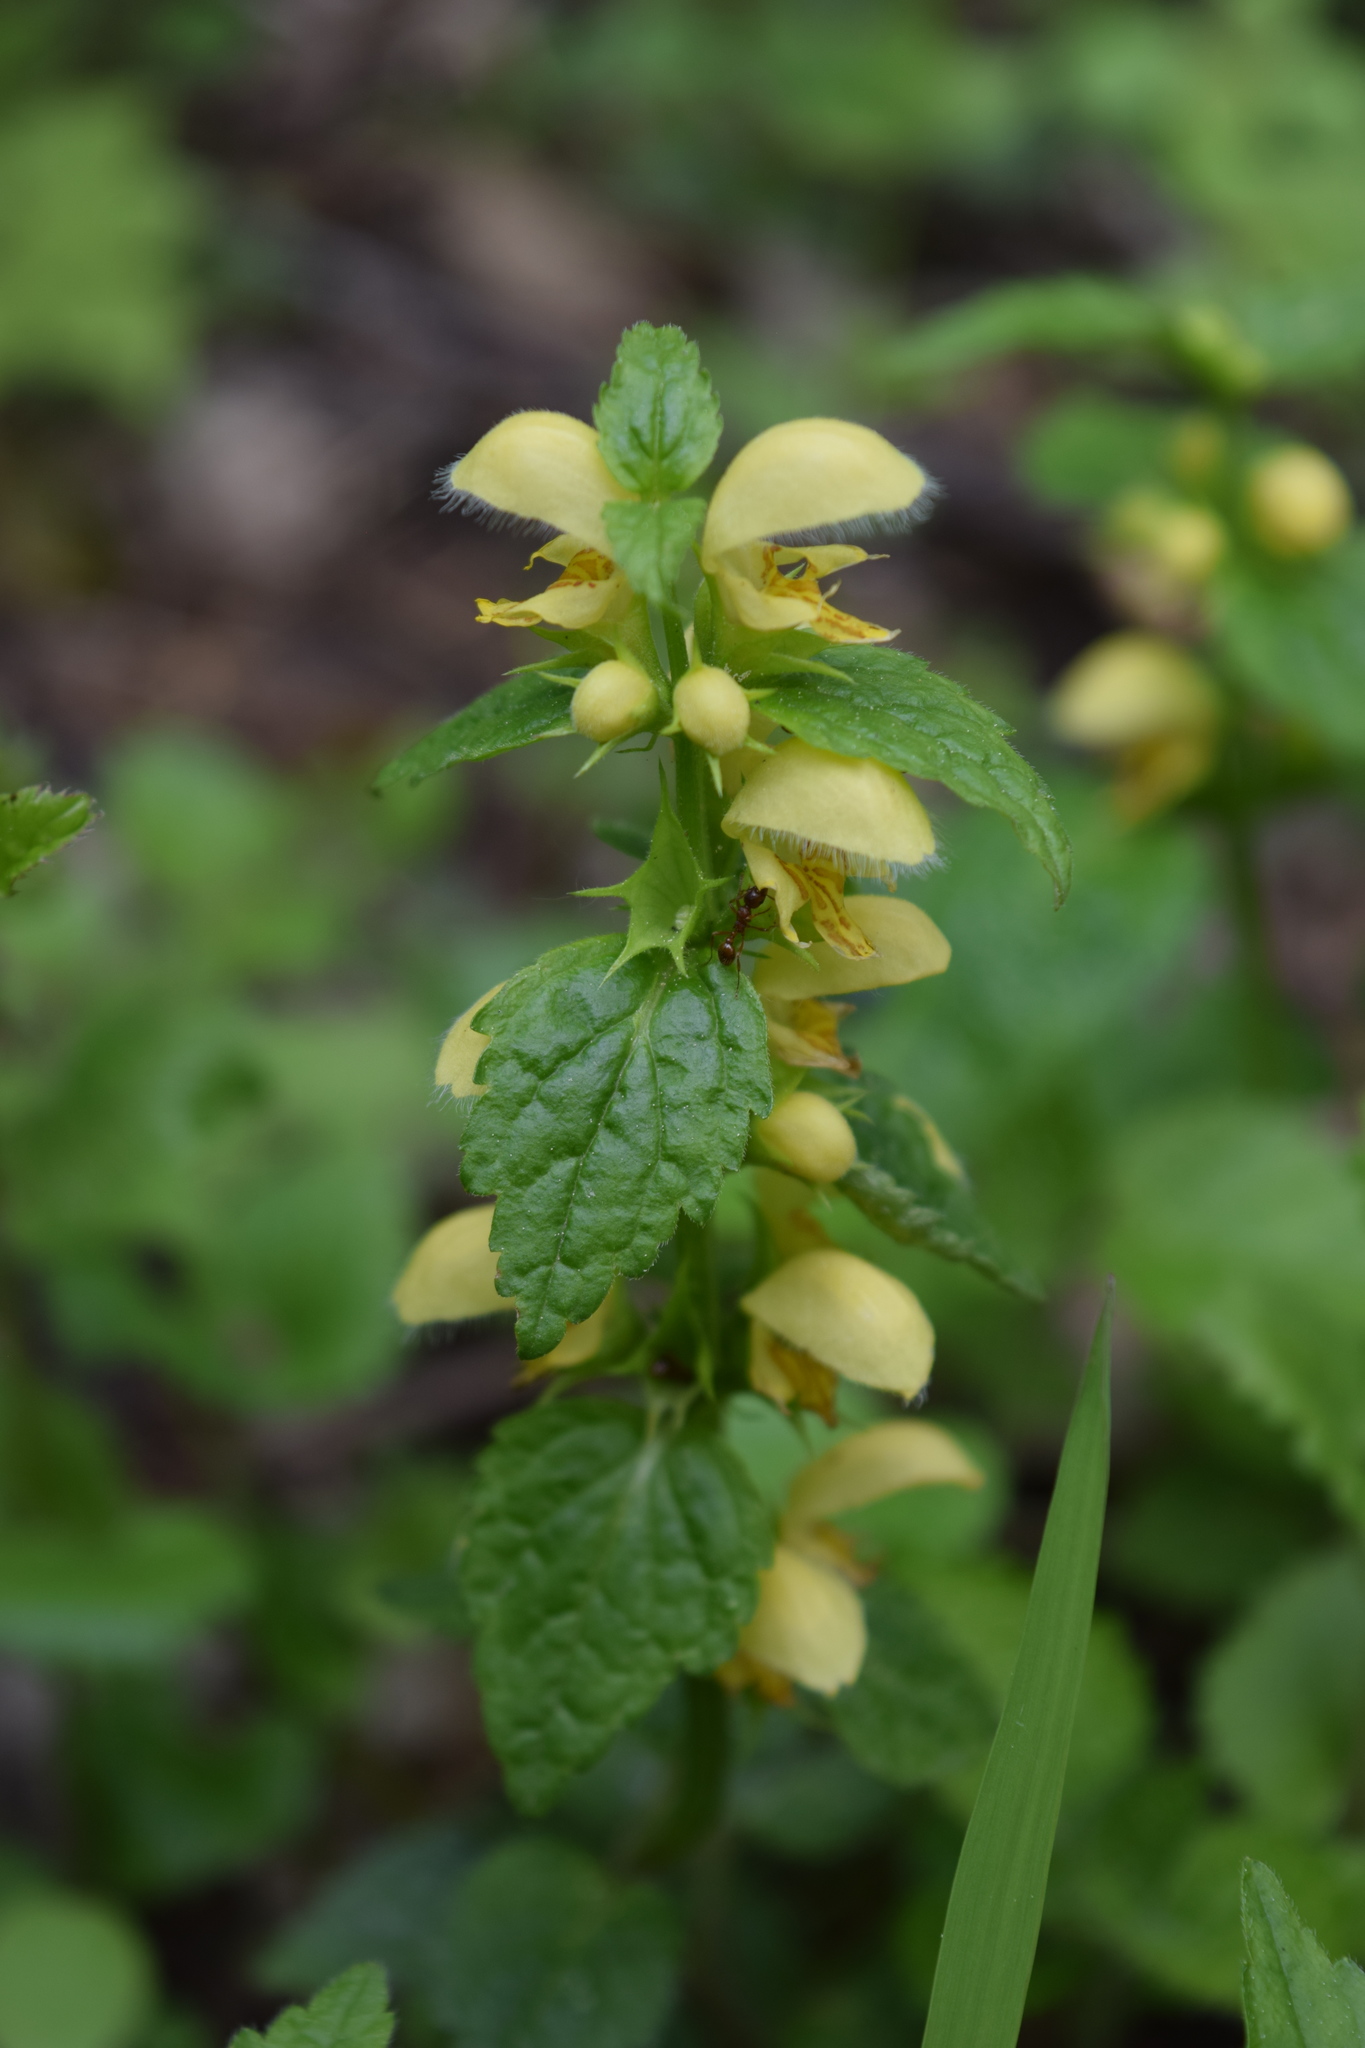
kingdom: Plantae
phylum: Tracheophyta
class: Magnoliopsida
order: Lamiales
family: Lamiaceae
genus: Lamium
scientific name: Lamium galeobdolon
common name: Yellow archangel
